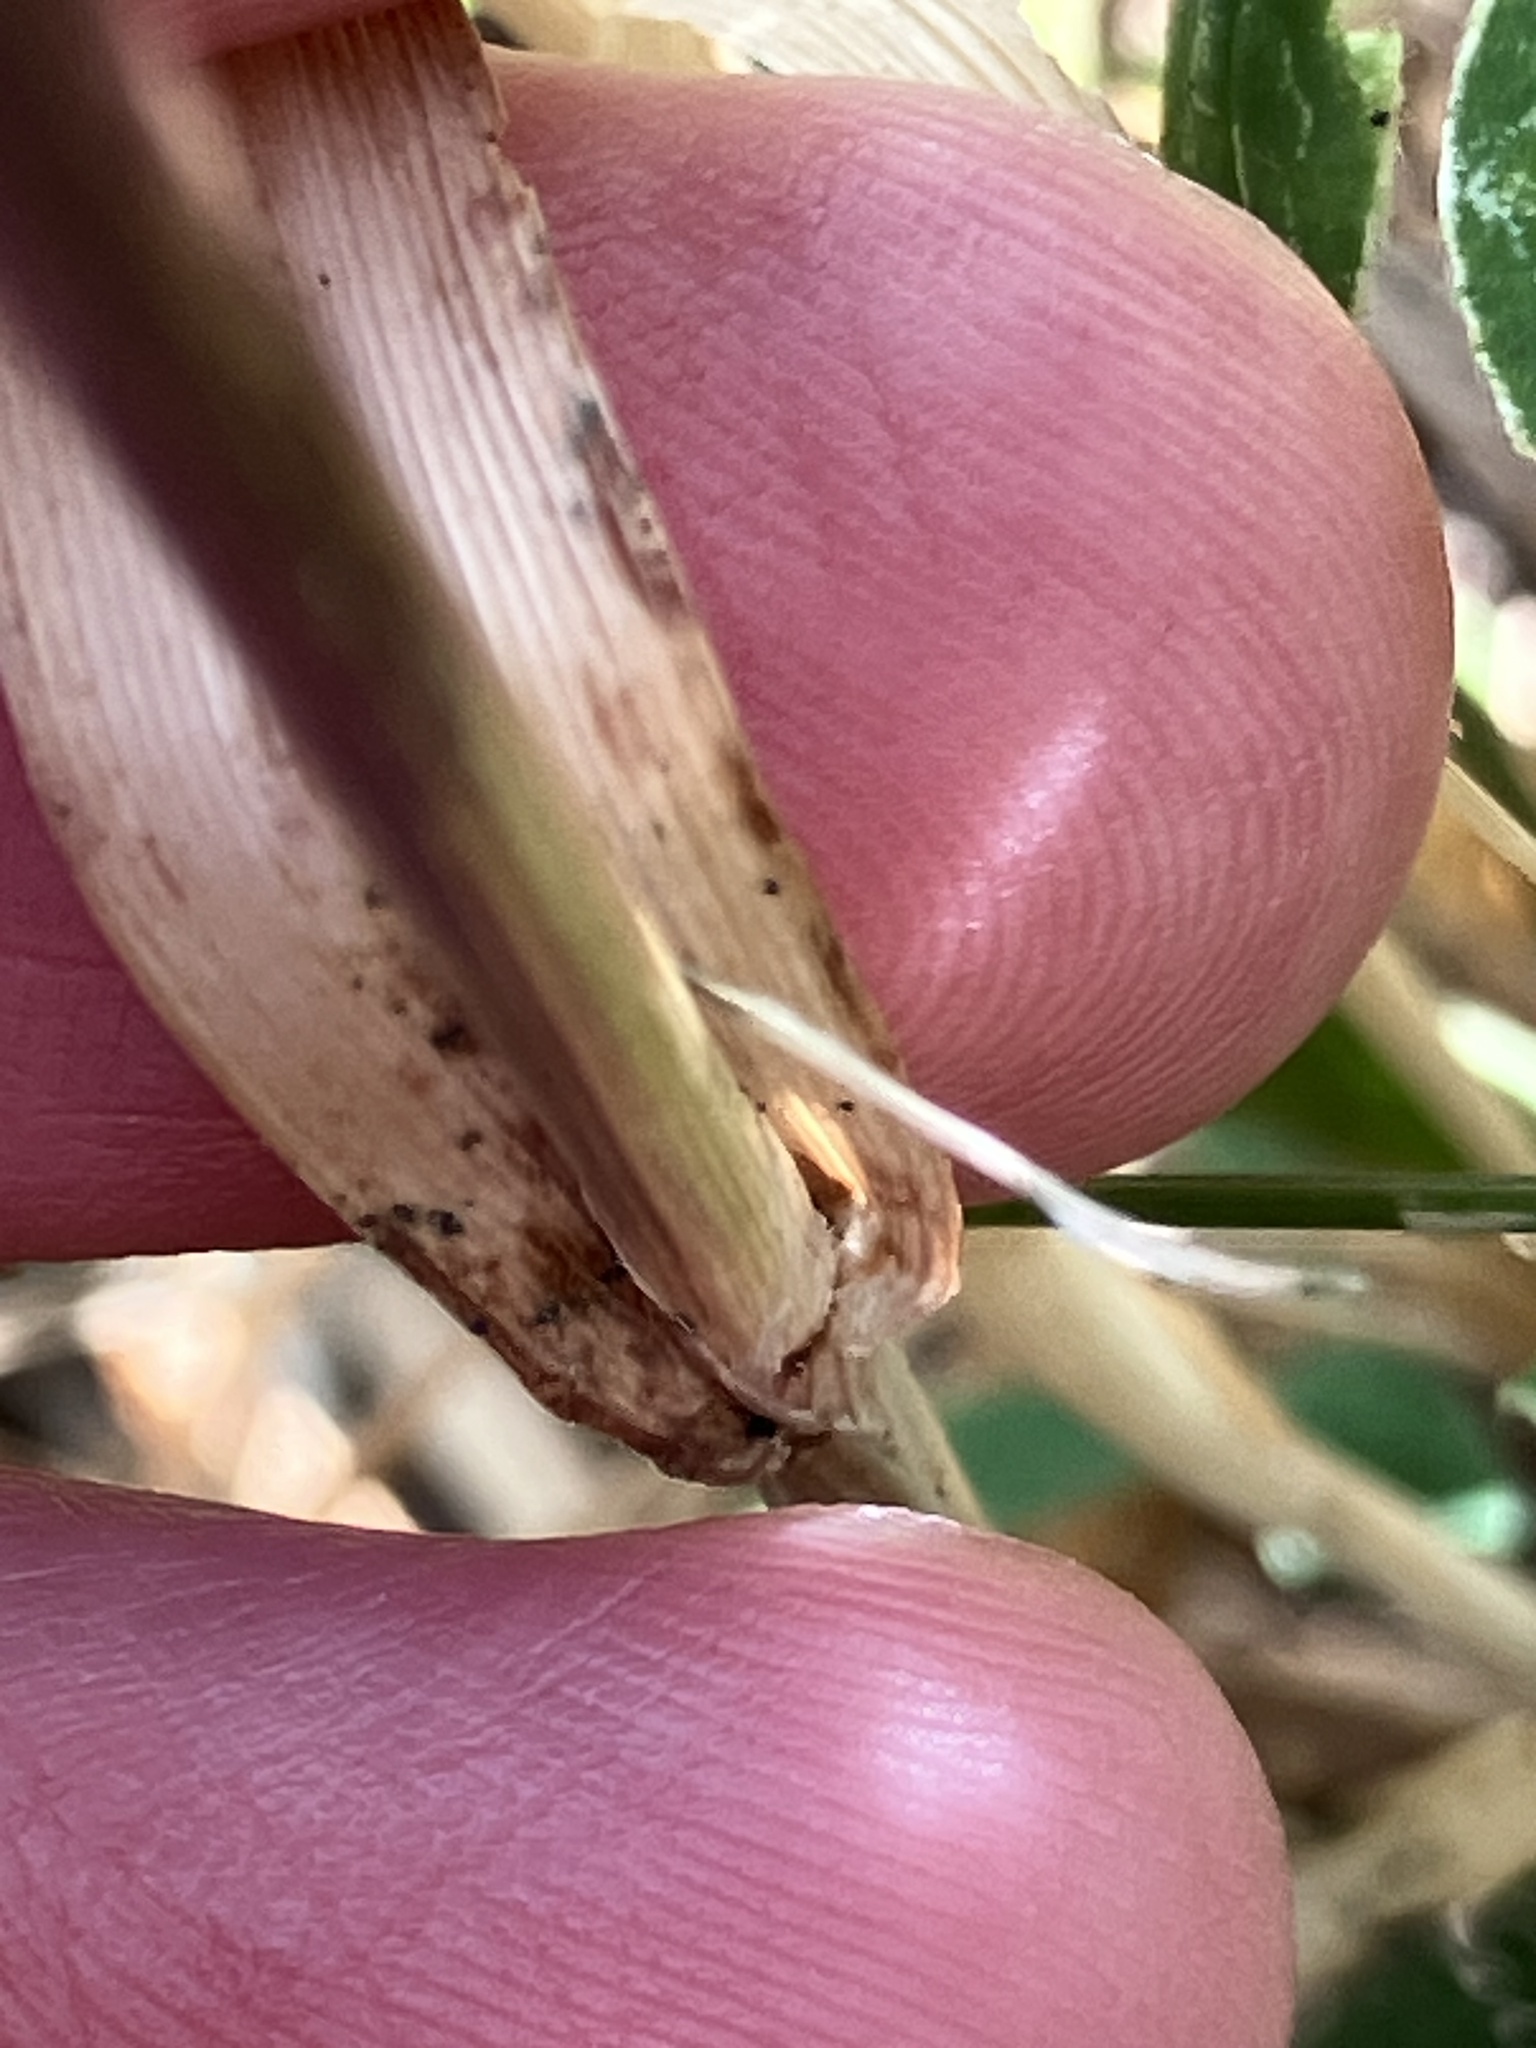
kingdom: Plantae
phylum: Tracheophyta
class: Liliopsida
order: Poales
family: Poaceae
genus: Lagurus
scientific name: Lagurus ovatus
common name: Hare's-tail
